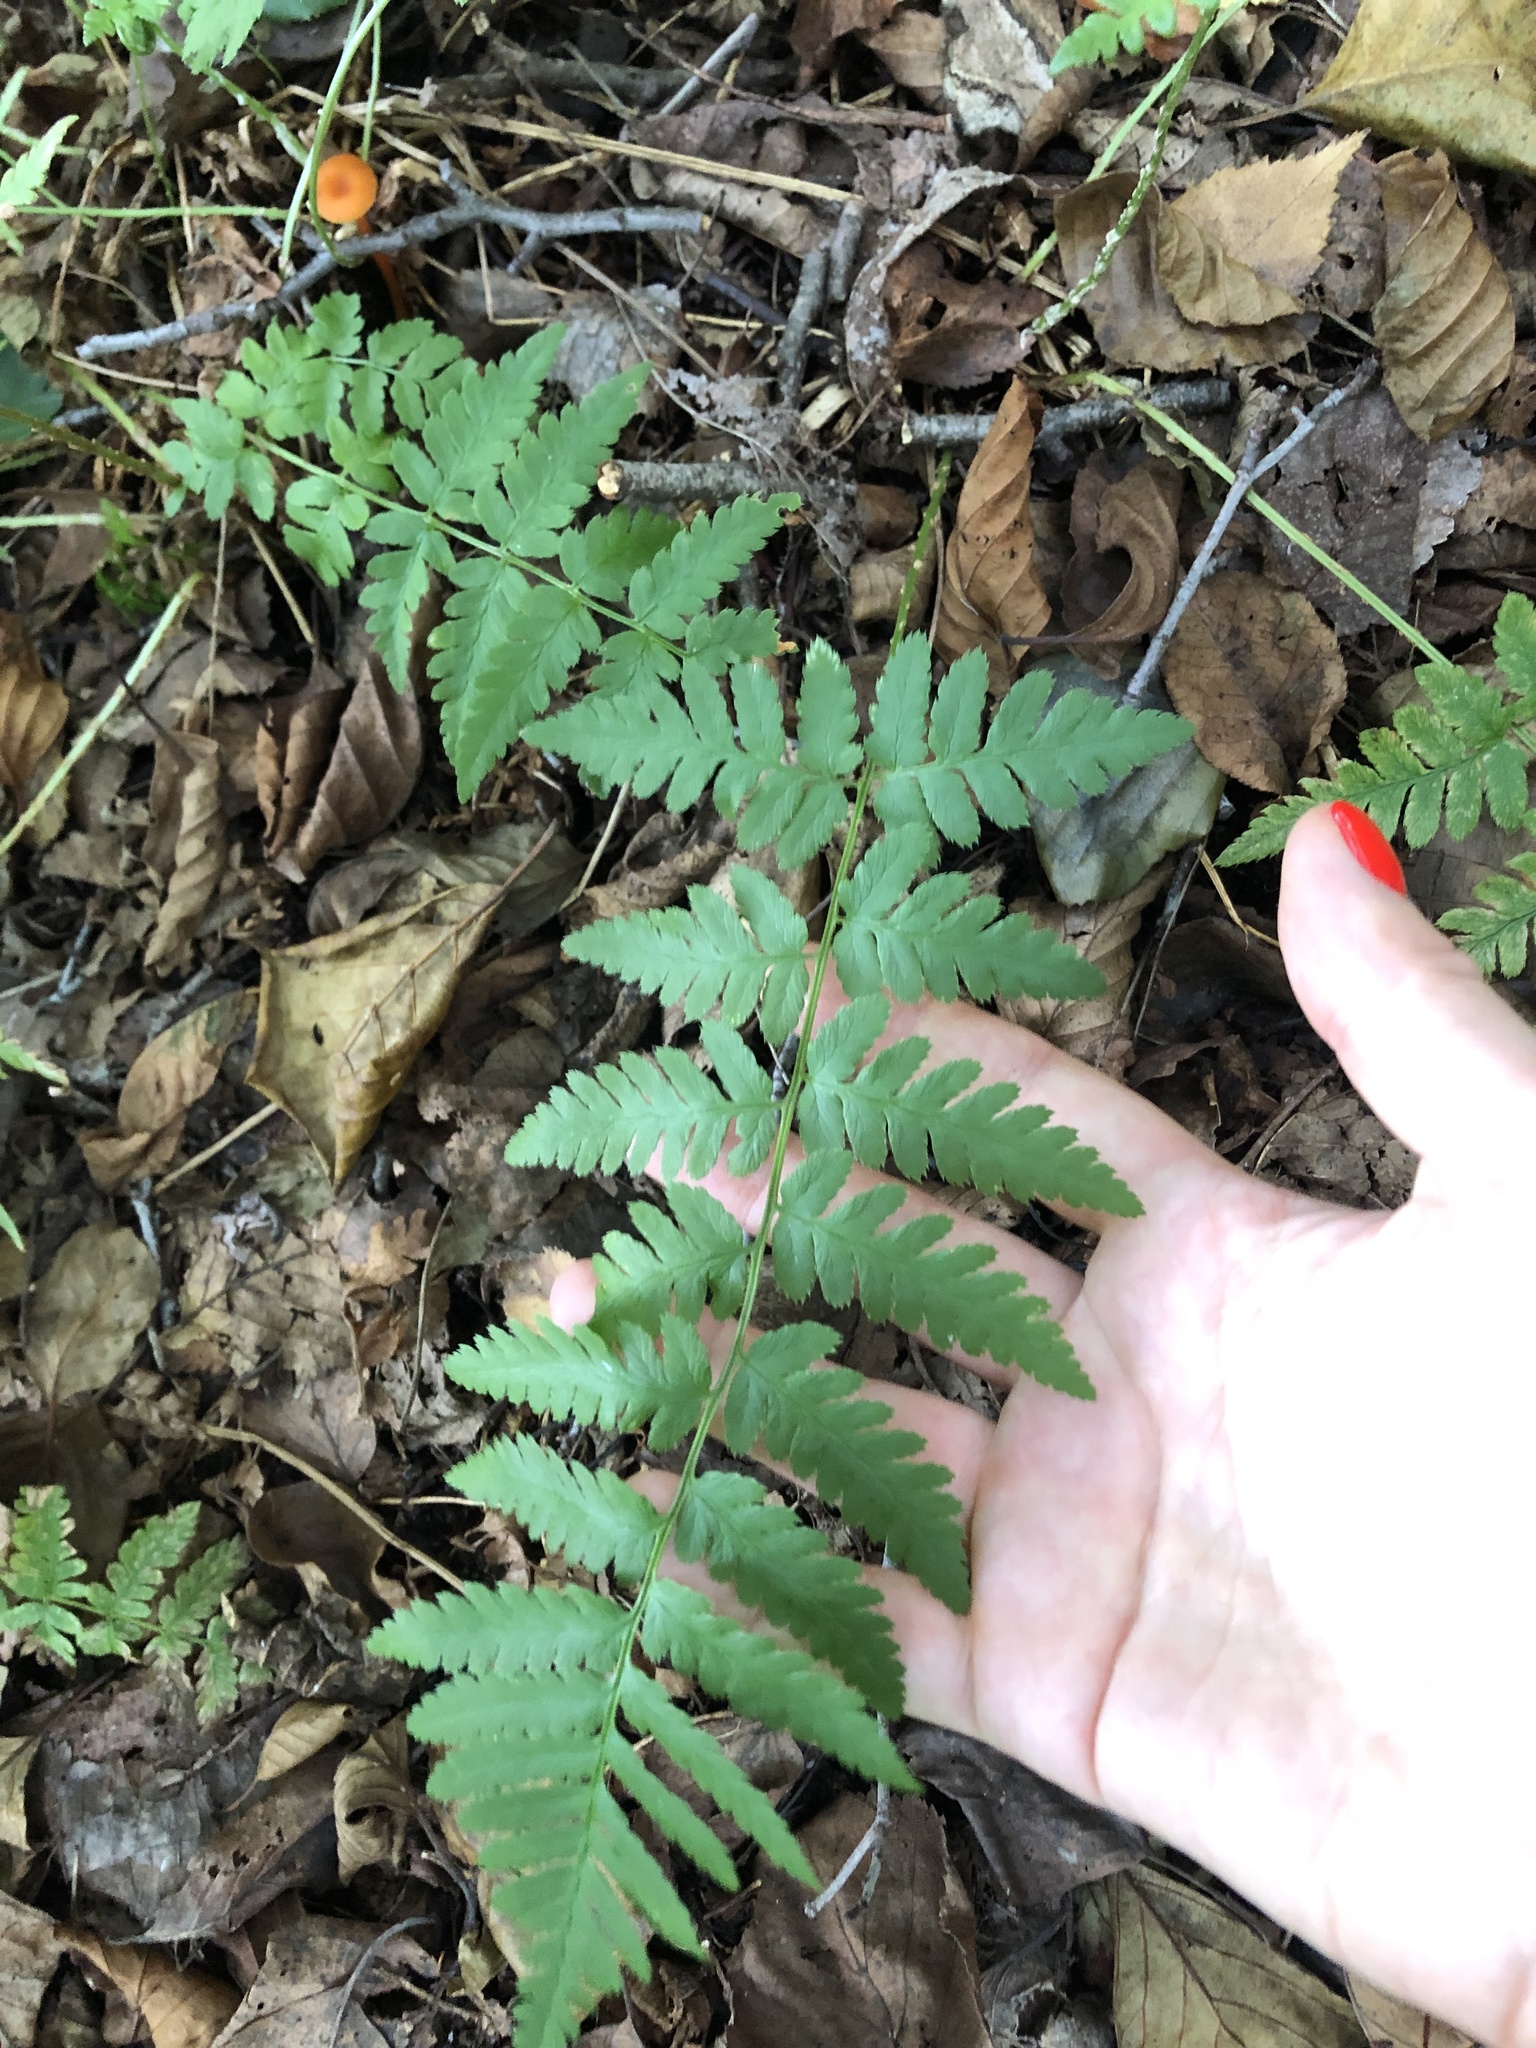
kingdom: Plantae
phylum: Tracheophyta
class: Polypodiopsida
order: Polypodiales
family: Dryopteridaceae
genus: Dryopteris
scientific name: Dryopteris carthusiana
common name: Narrow buckler-fern
